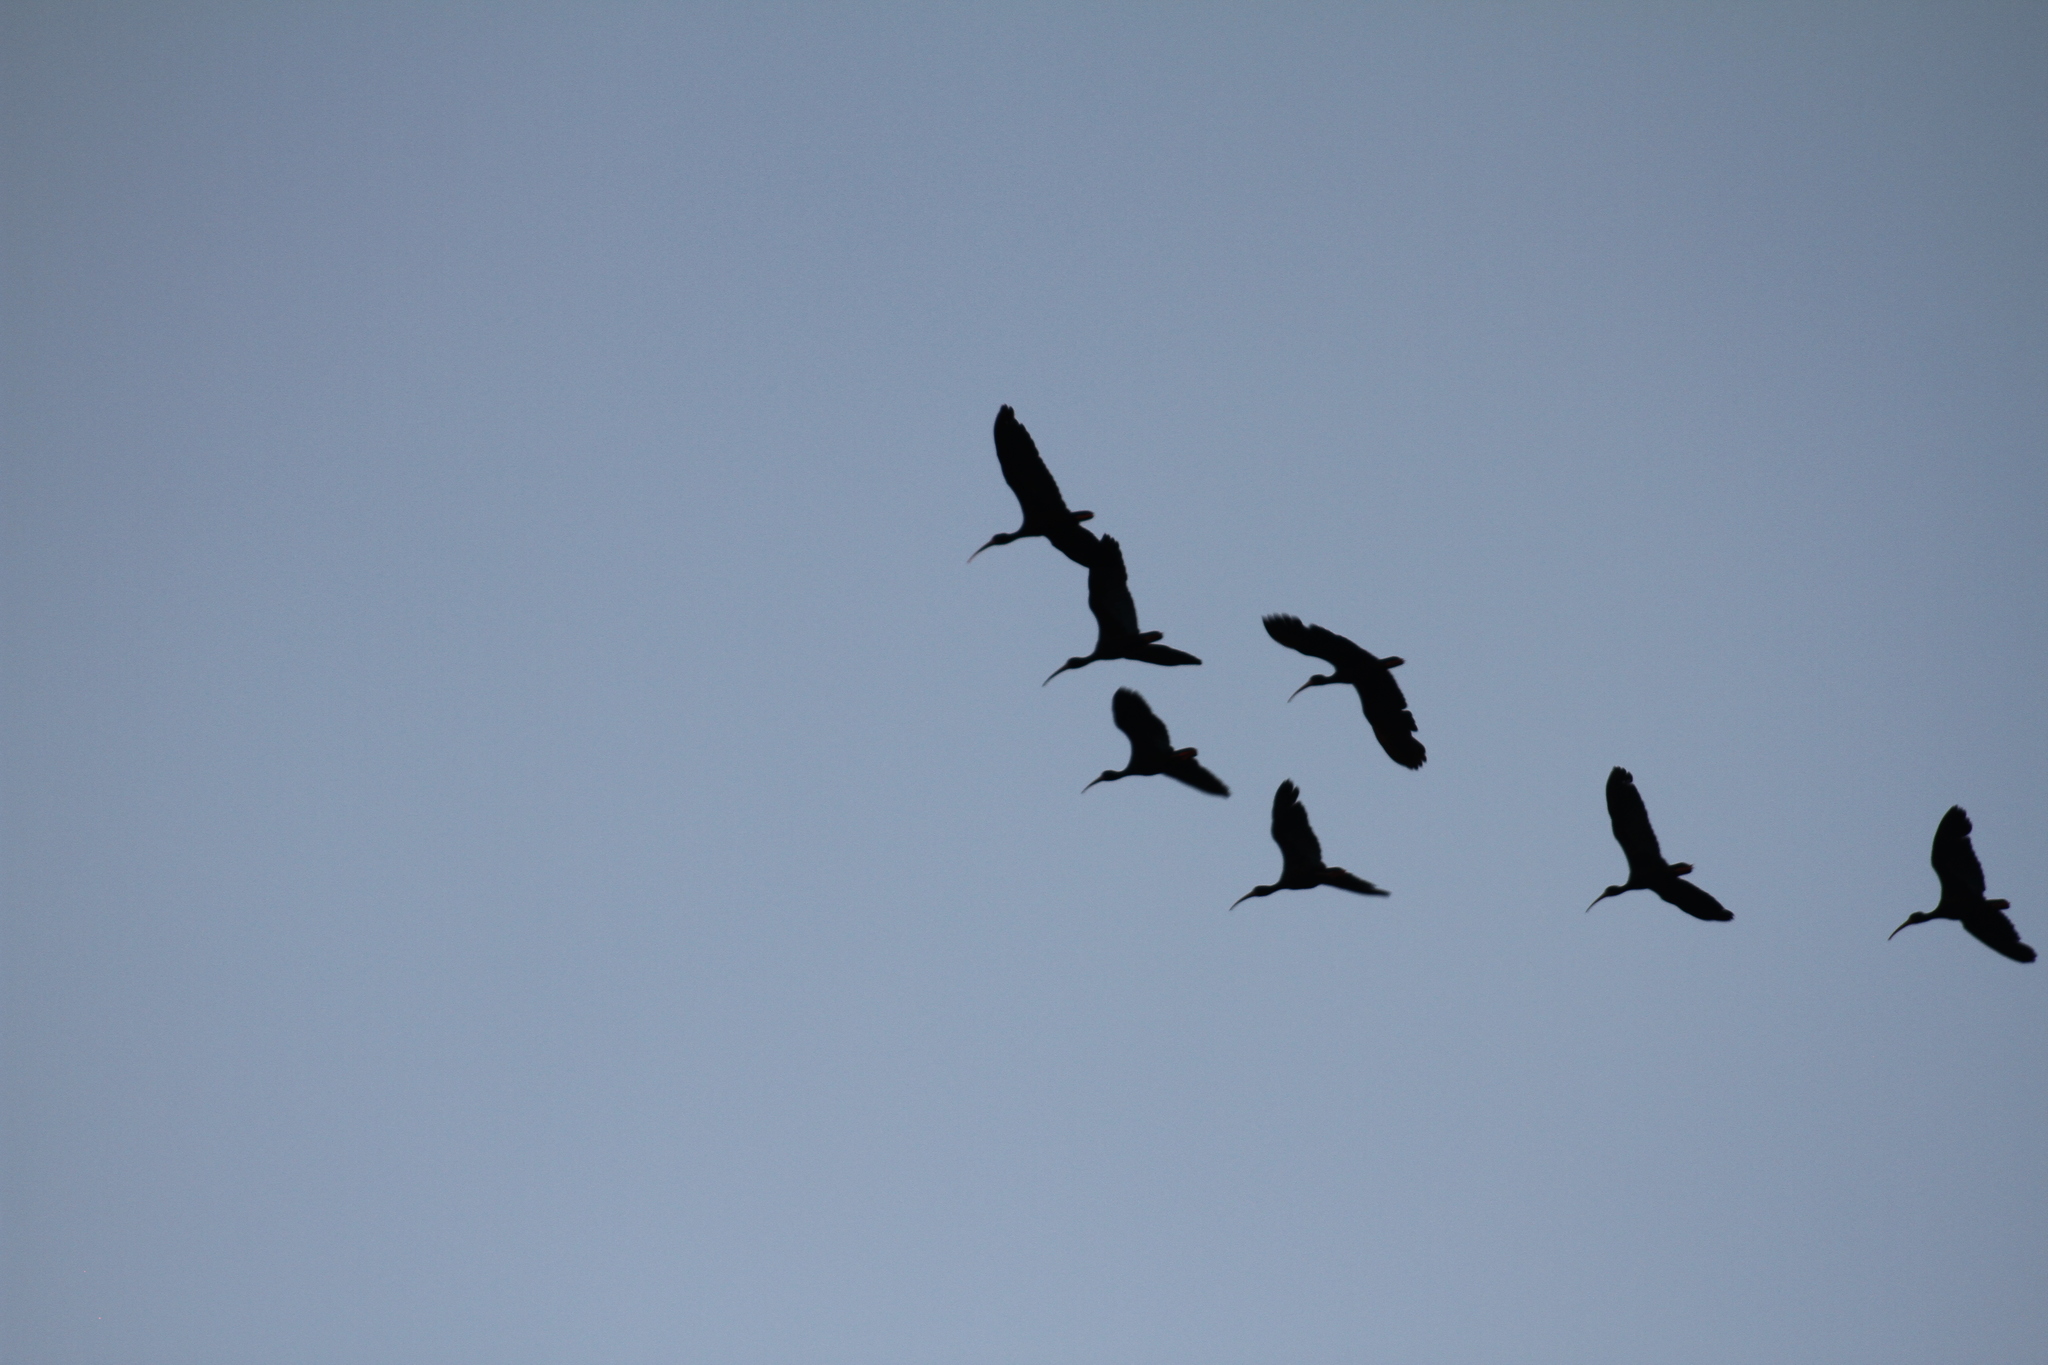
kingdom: Animalia
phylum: Chordata
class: Aves
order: Pelecaniformes
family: Threskiornithidae
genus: Phimosus
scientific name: Phimosus infuscatus
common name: Bare-faced ibis
